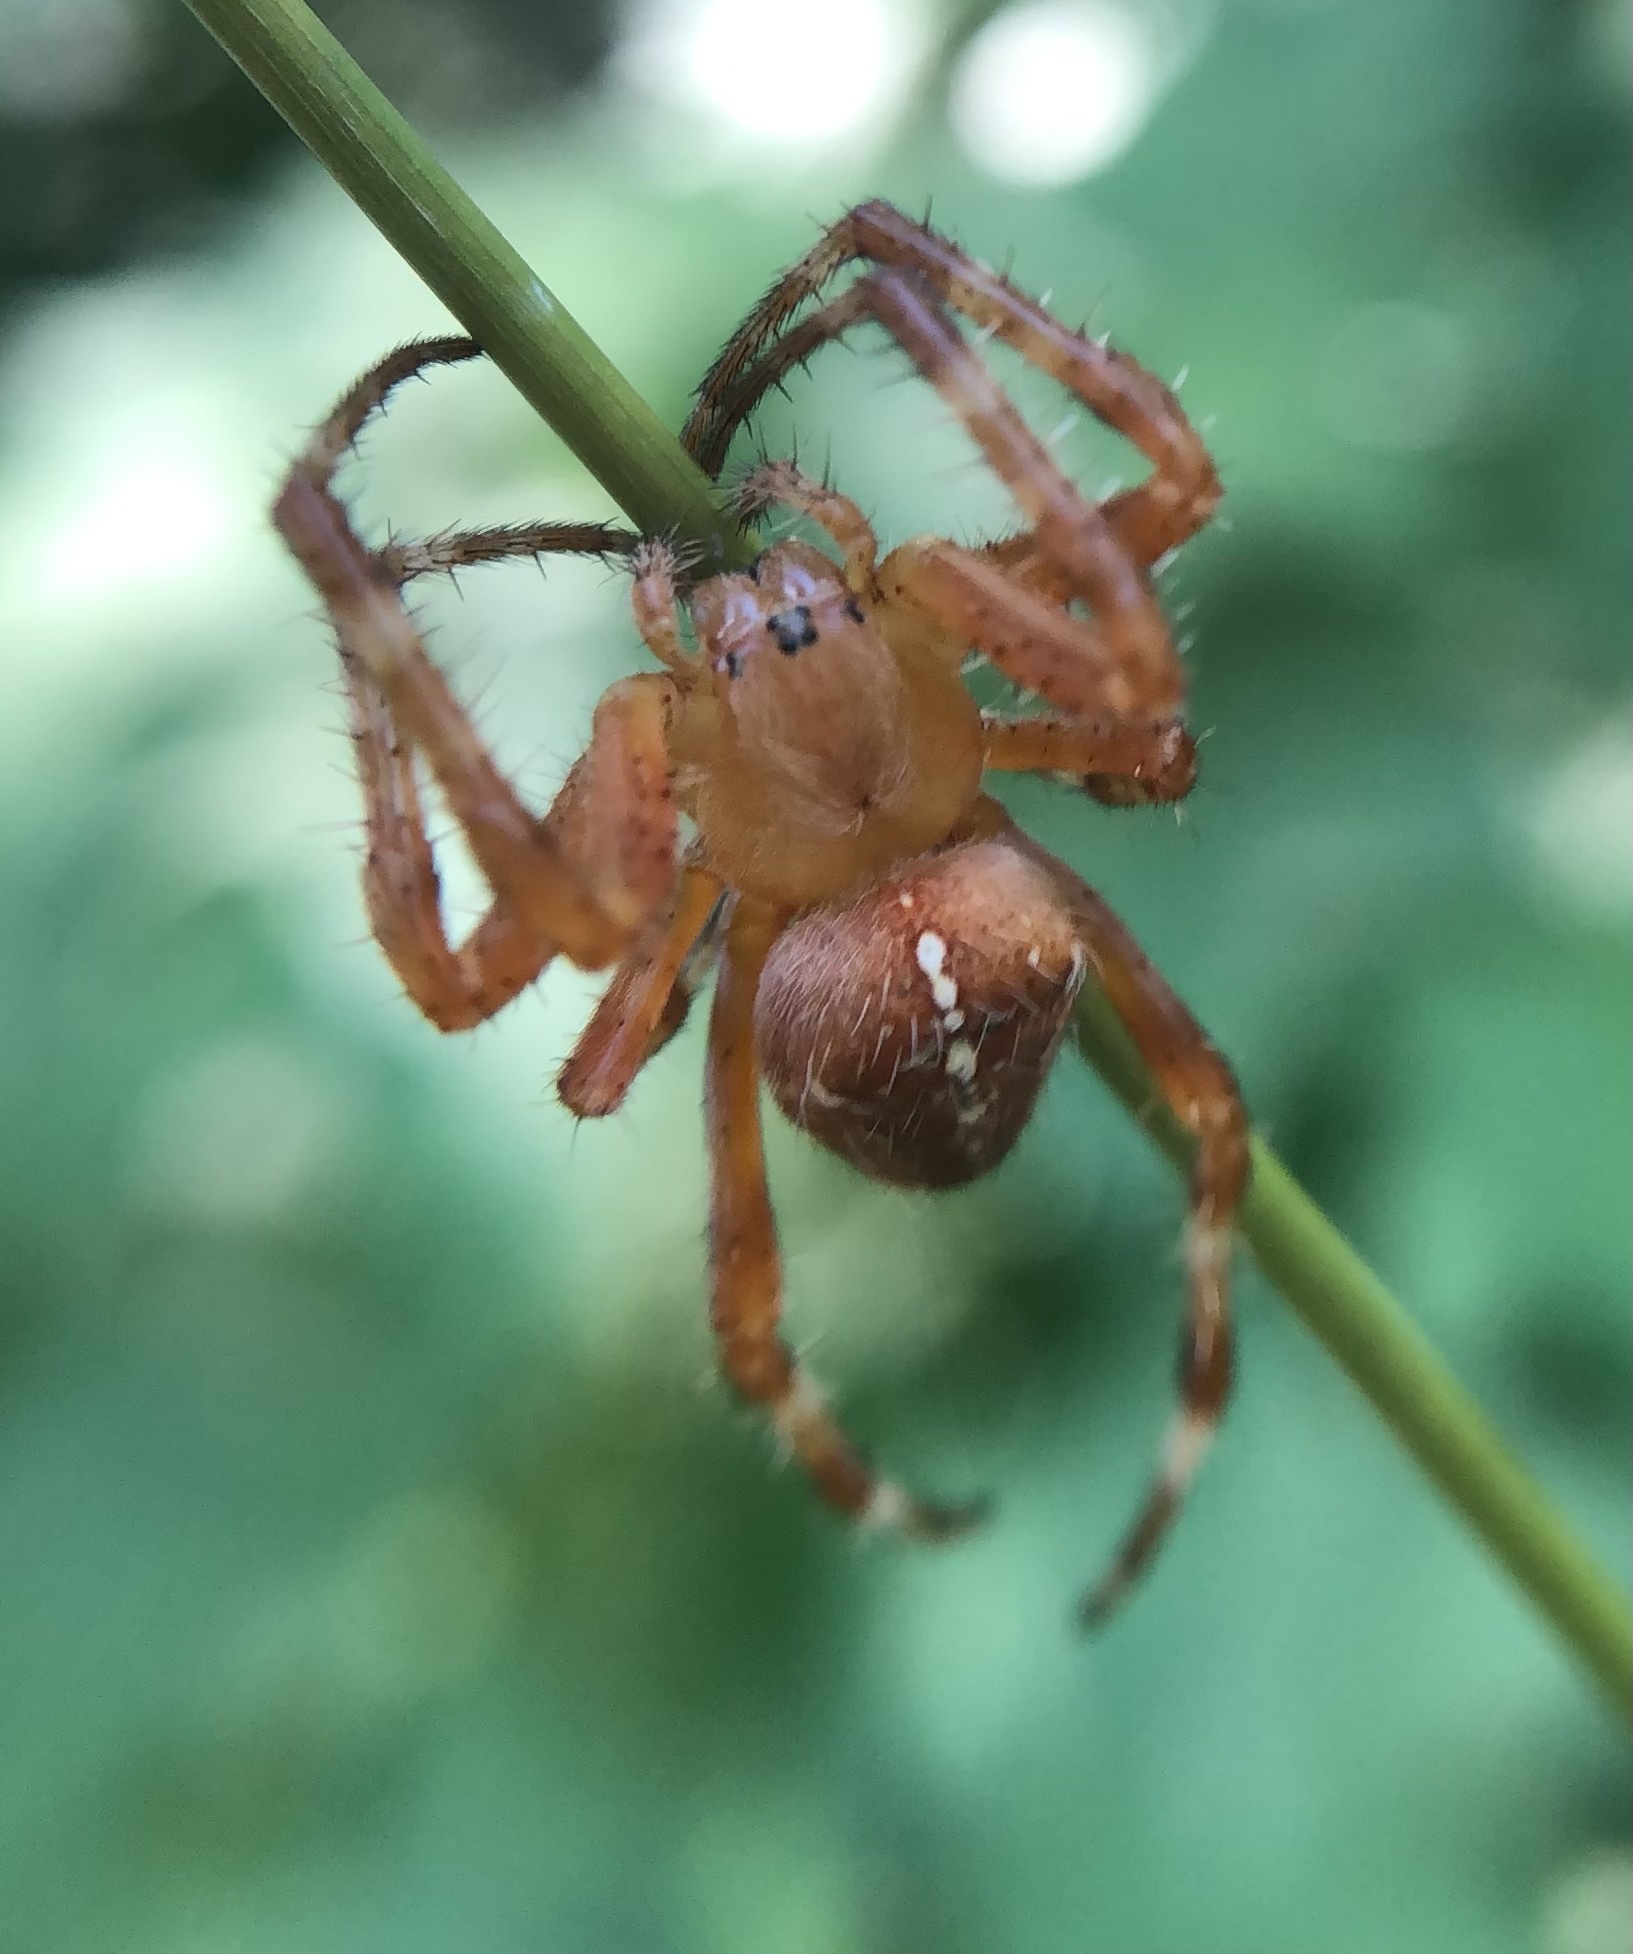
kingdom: Animalia
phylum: Arthropoda
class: Arachnida
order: Araneae
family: Araneidae
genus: Araneus
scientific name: Araneus diadematus
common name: Cross orbweaver
